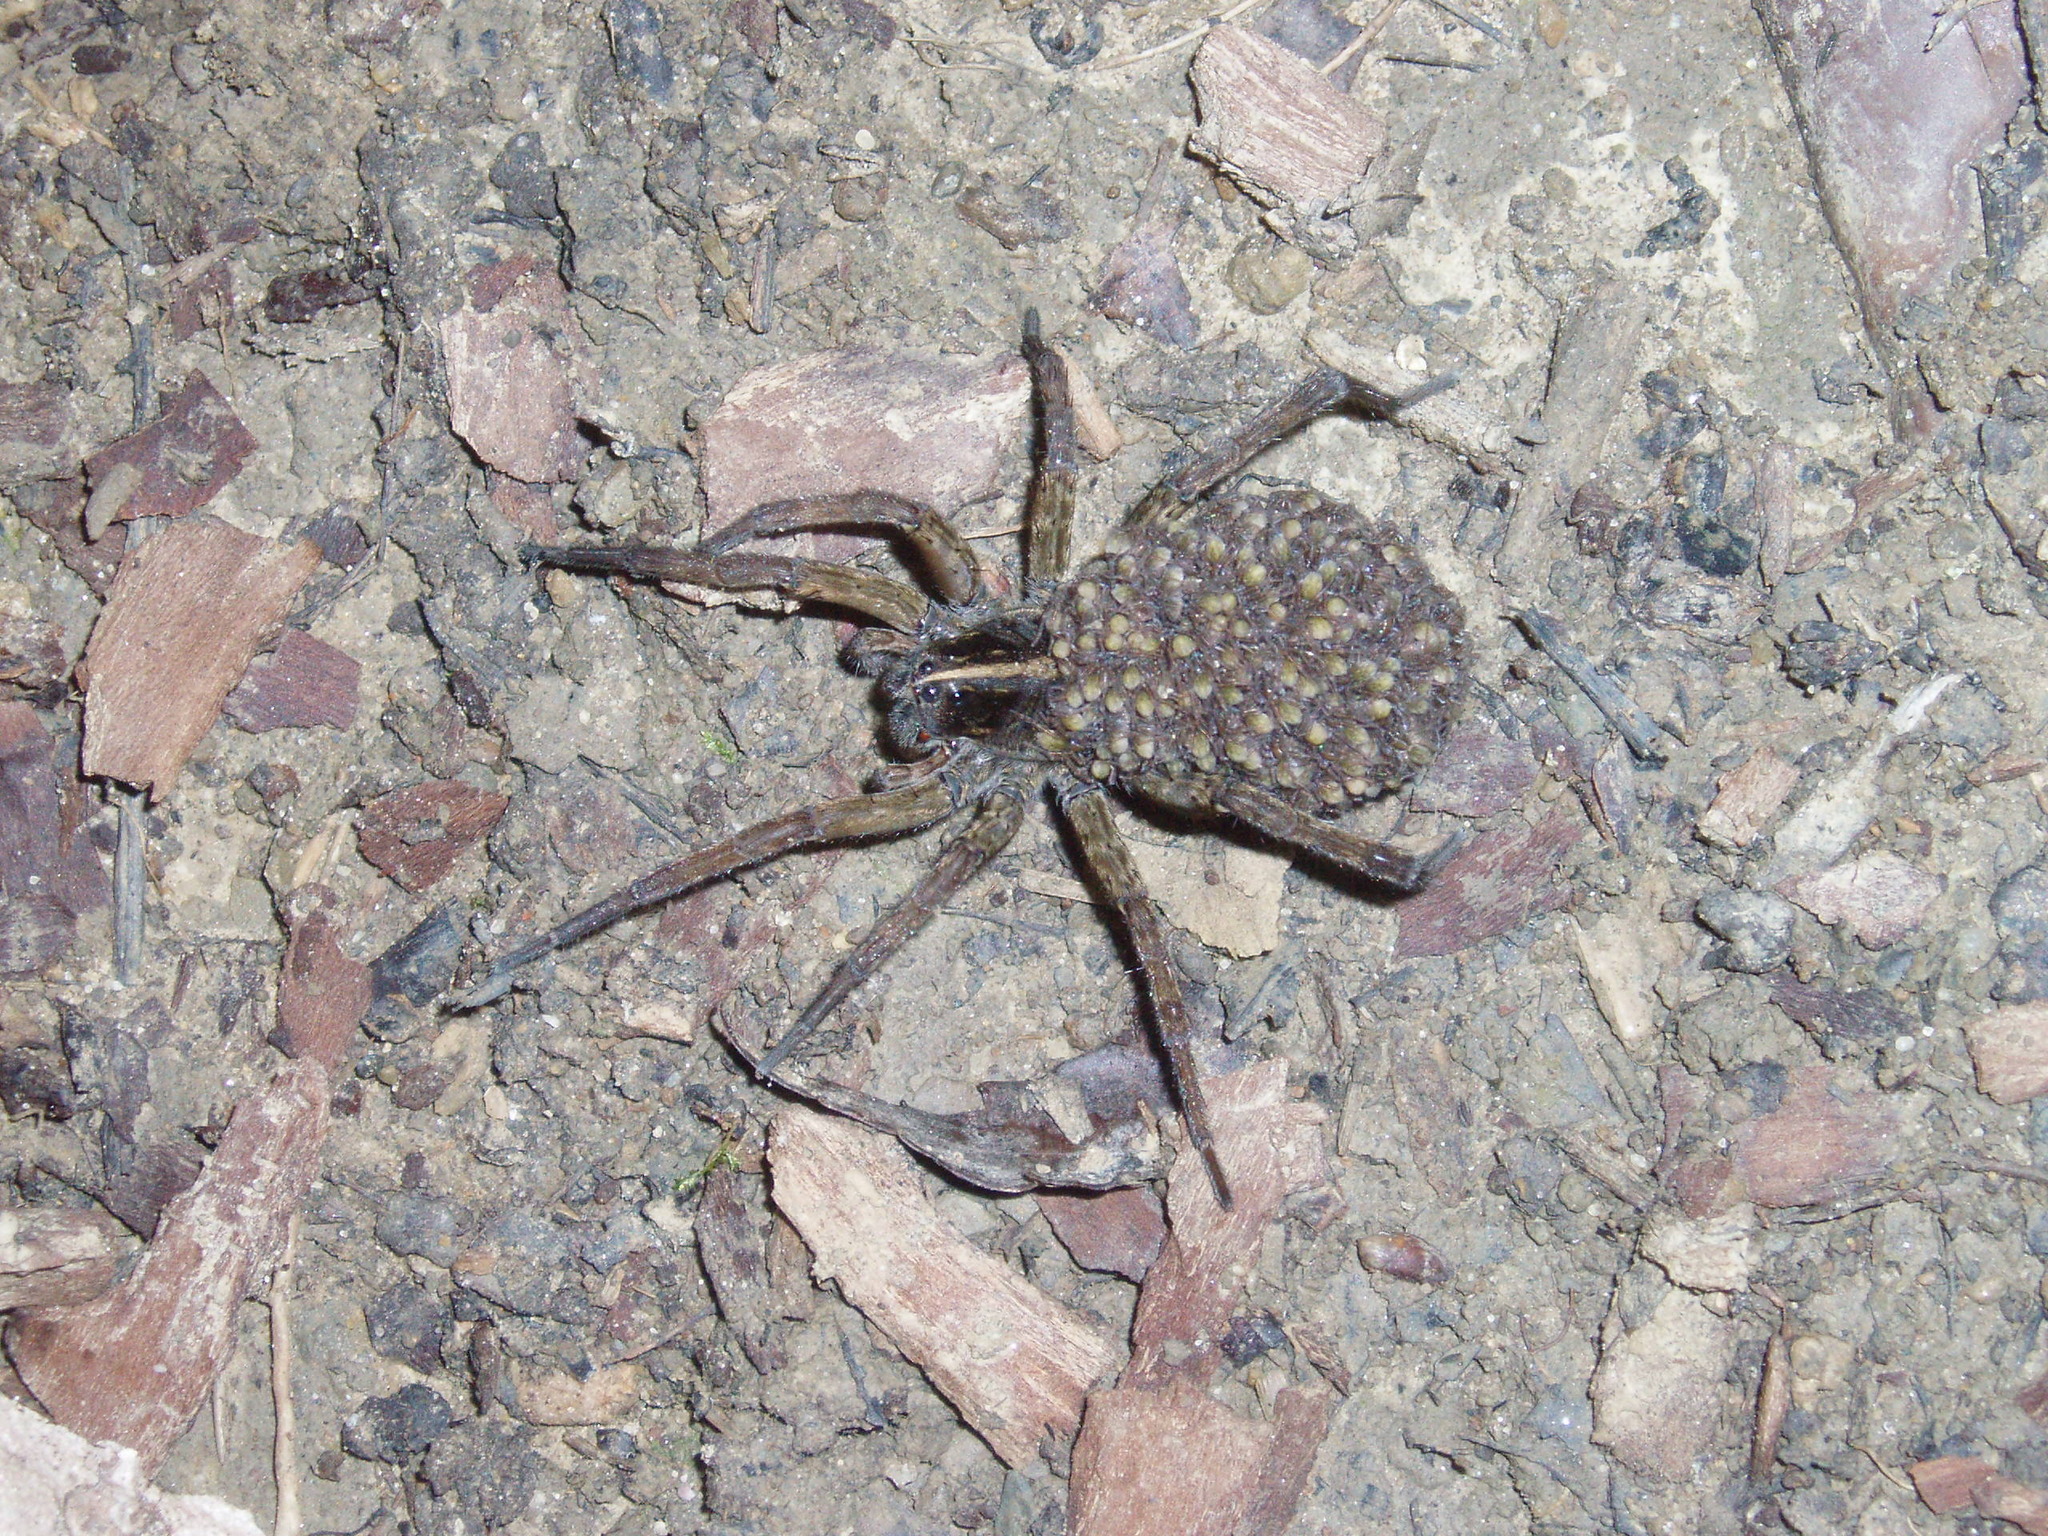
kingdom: Animalia
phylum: Arthropoda
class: Arachnida
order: Araneae
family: Lycosidae
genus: Tigrosa
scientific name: Tigrosa helluo
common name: Wetland giant wolf spider
